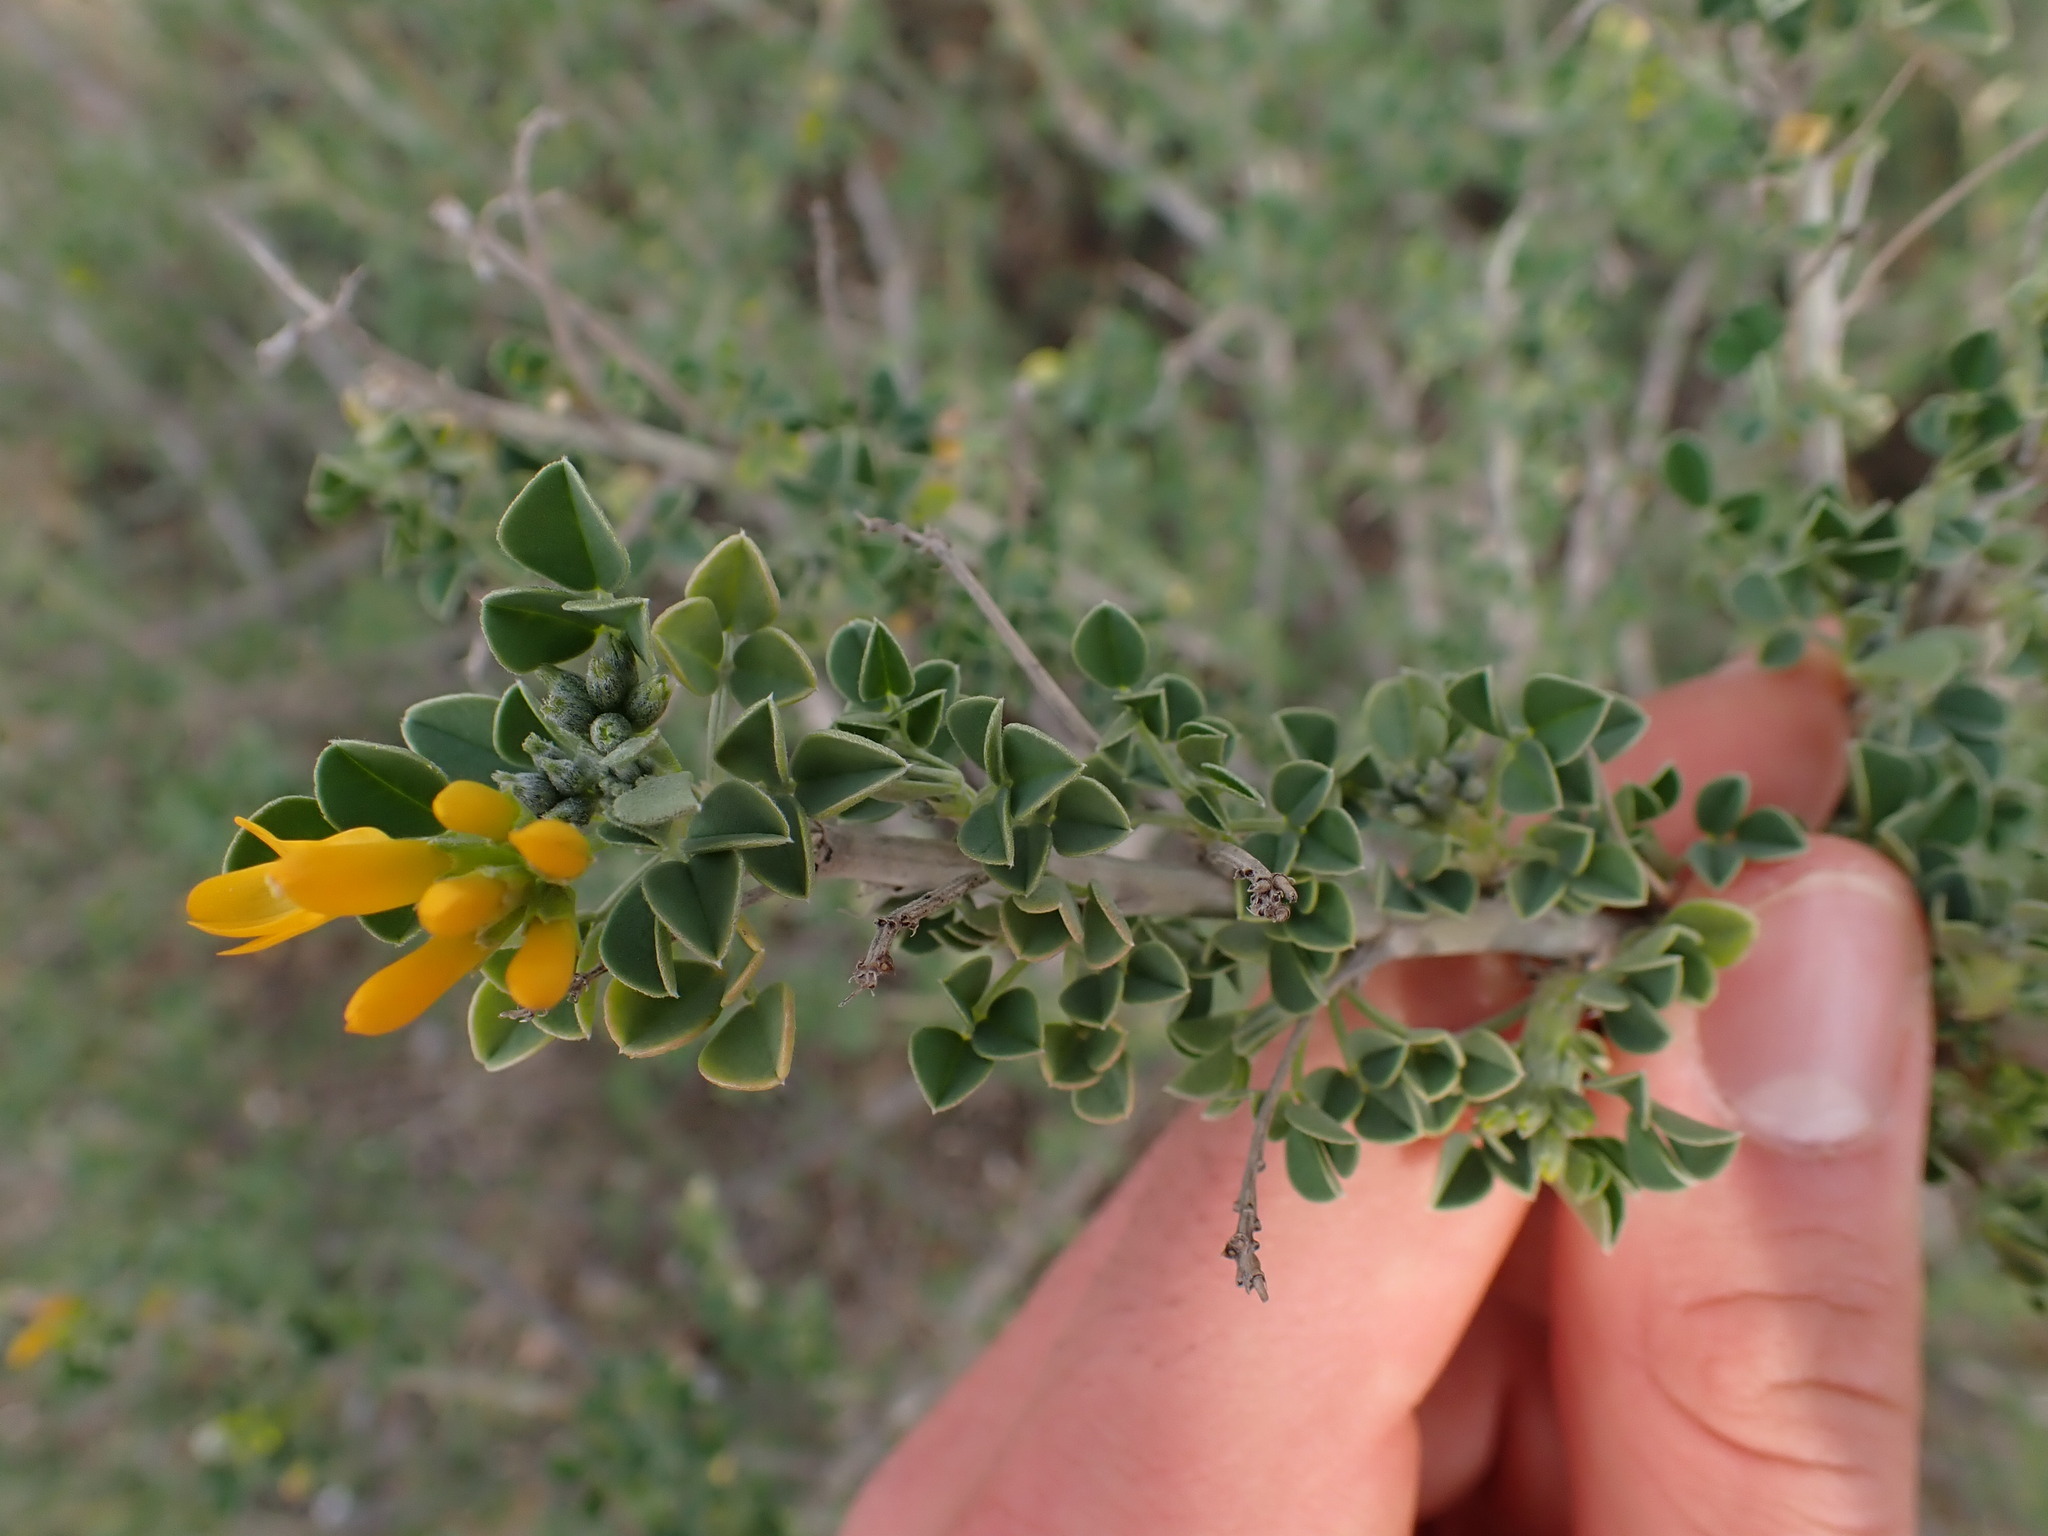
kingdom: Plantae
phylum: Tracheophyta
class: Magnoliopsida
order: Fabales
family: Fabaceae
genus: Medicago
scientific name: Medicago arborea
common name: Moon trefoil
